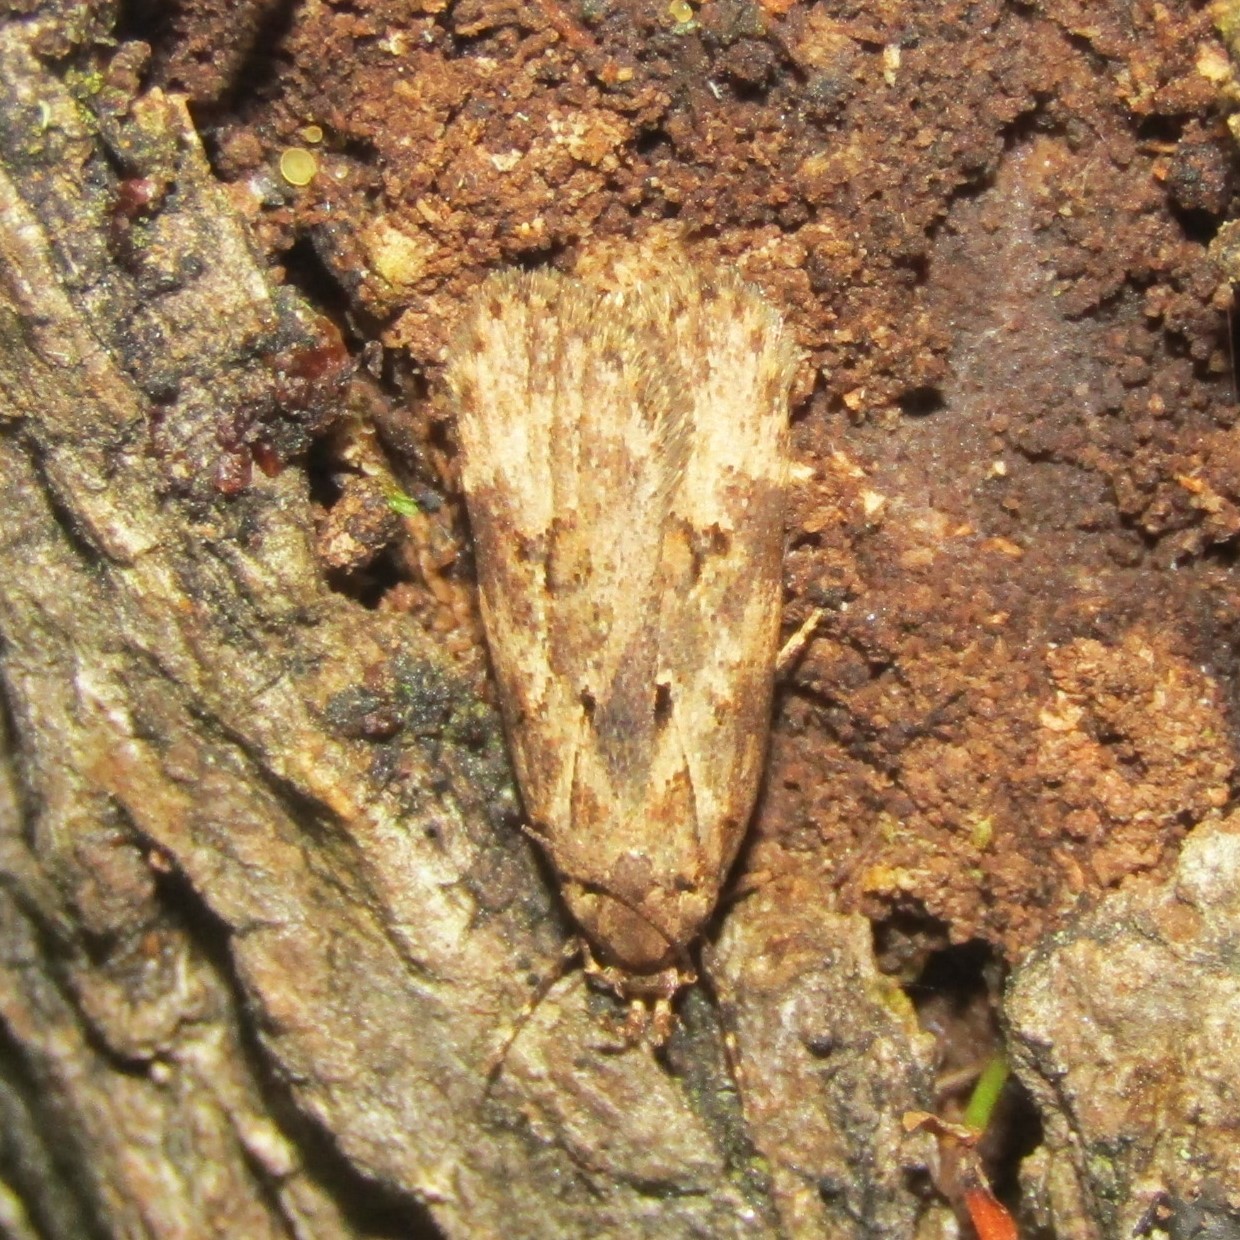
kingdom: Animalia
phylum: Arthropoda
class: Insecta
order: Lepidoptera
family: Oecophoridae
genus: Izatha
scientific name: Izatha austera
